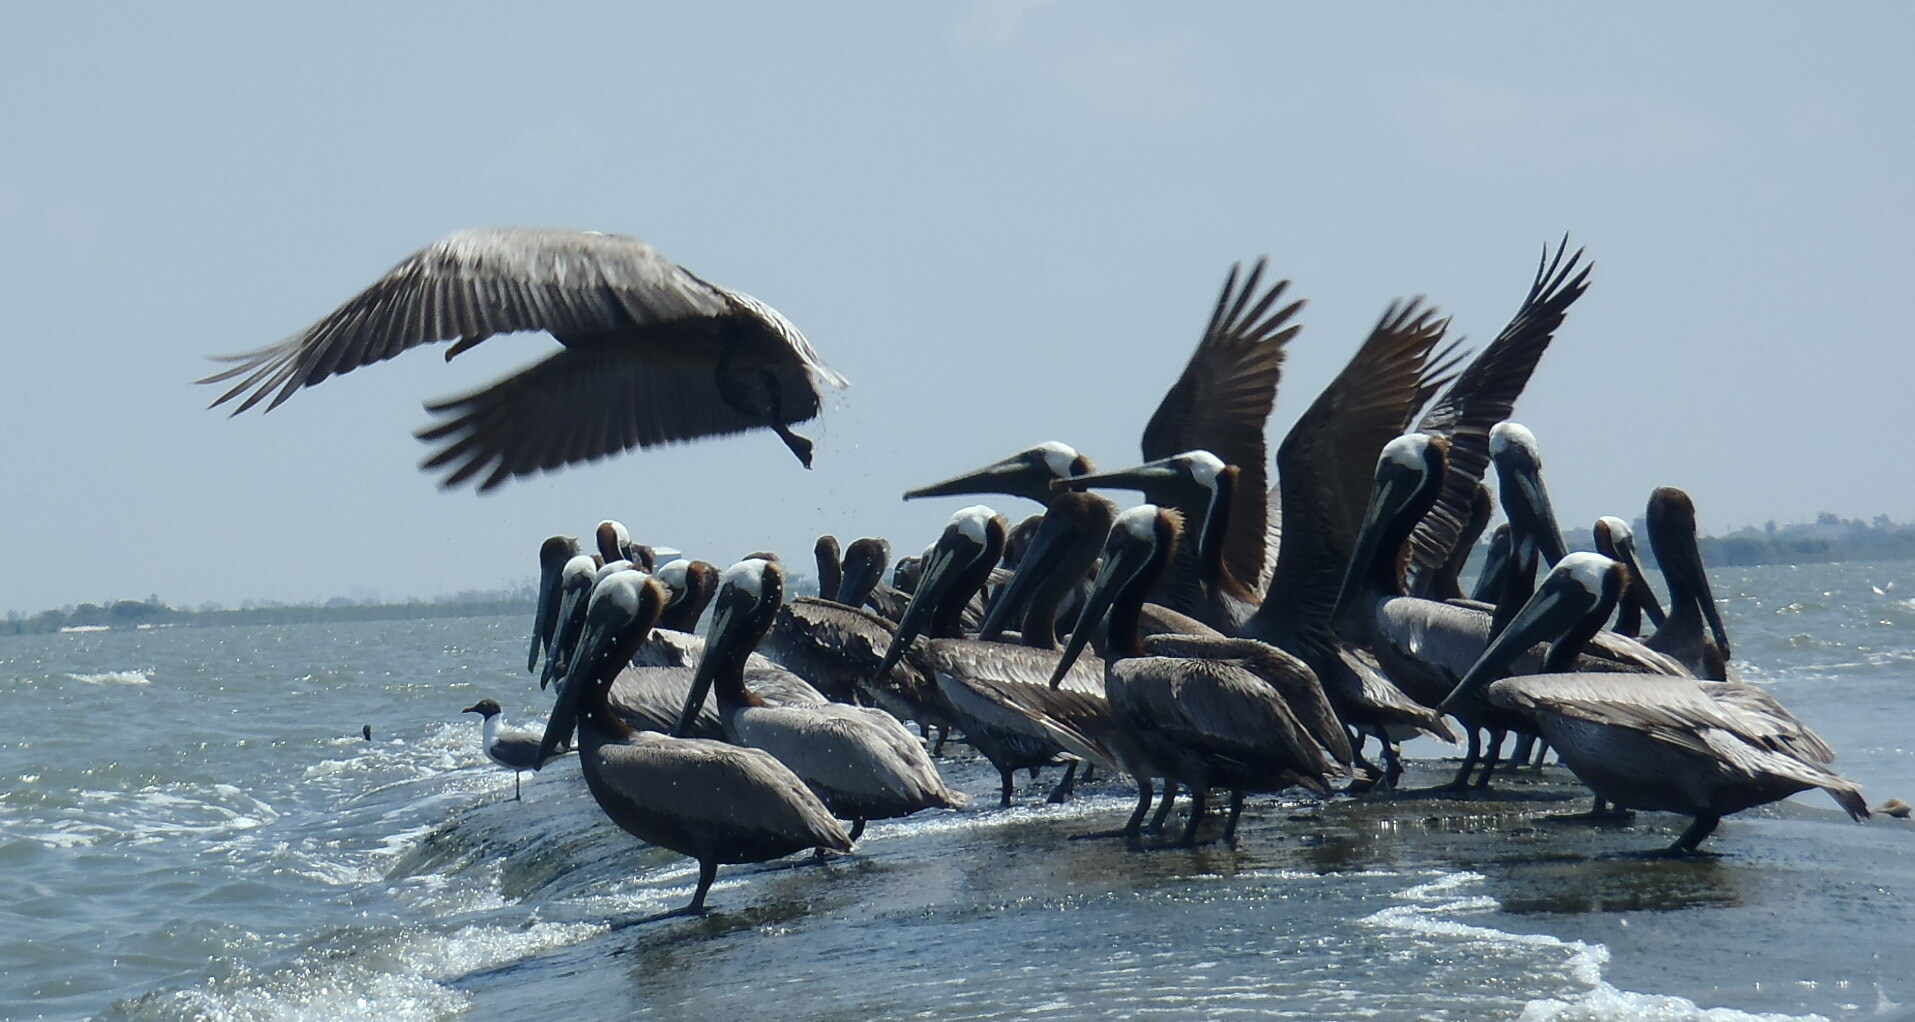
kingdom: Animalia
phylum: Chordata
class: Aves
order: Pelecaniformes
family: Pelecanidae
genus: Pelecanus
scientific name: Pelecanus occidentalis
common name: Brown pelican
